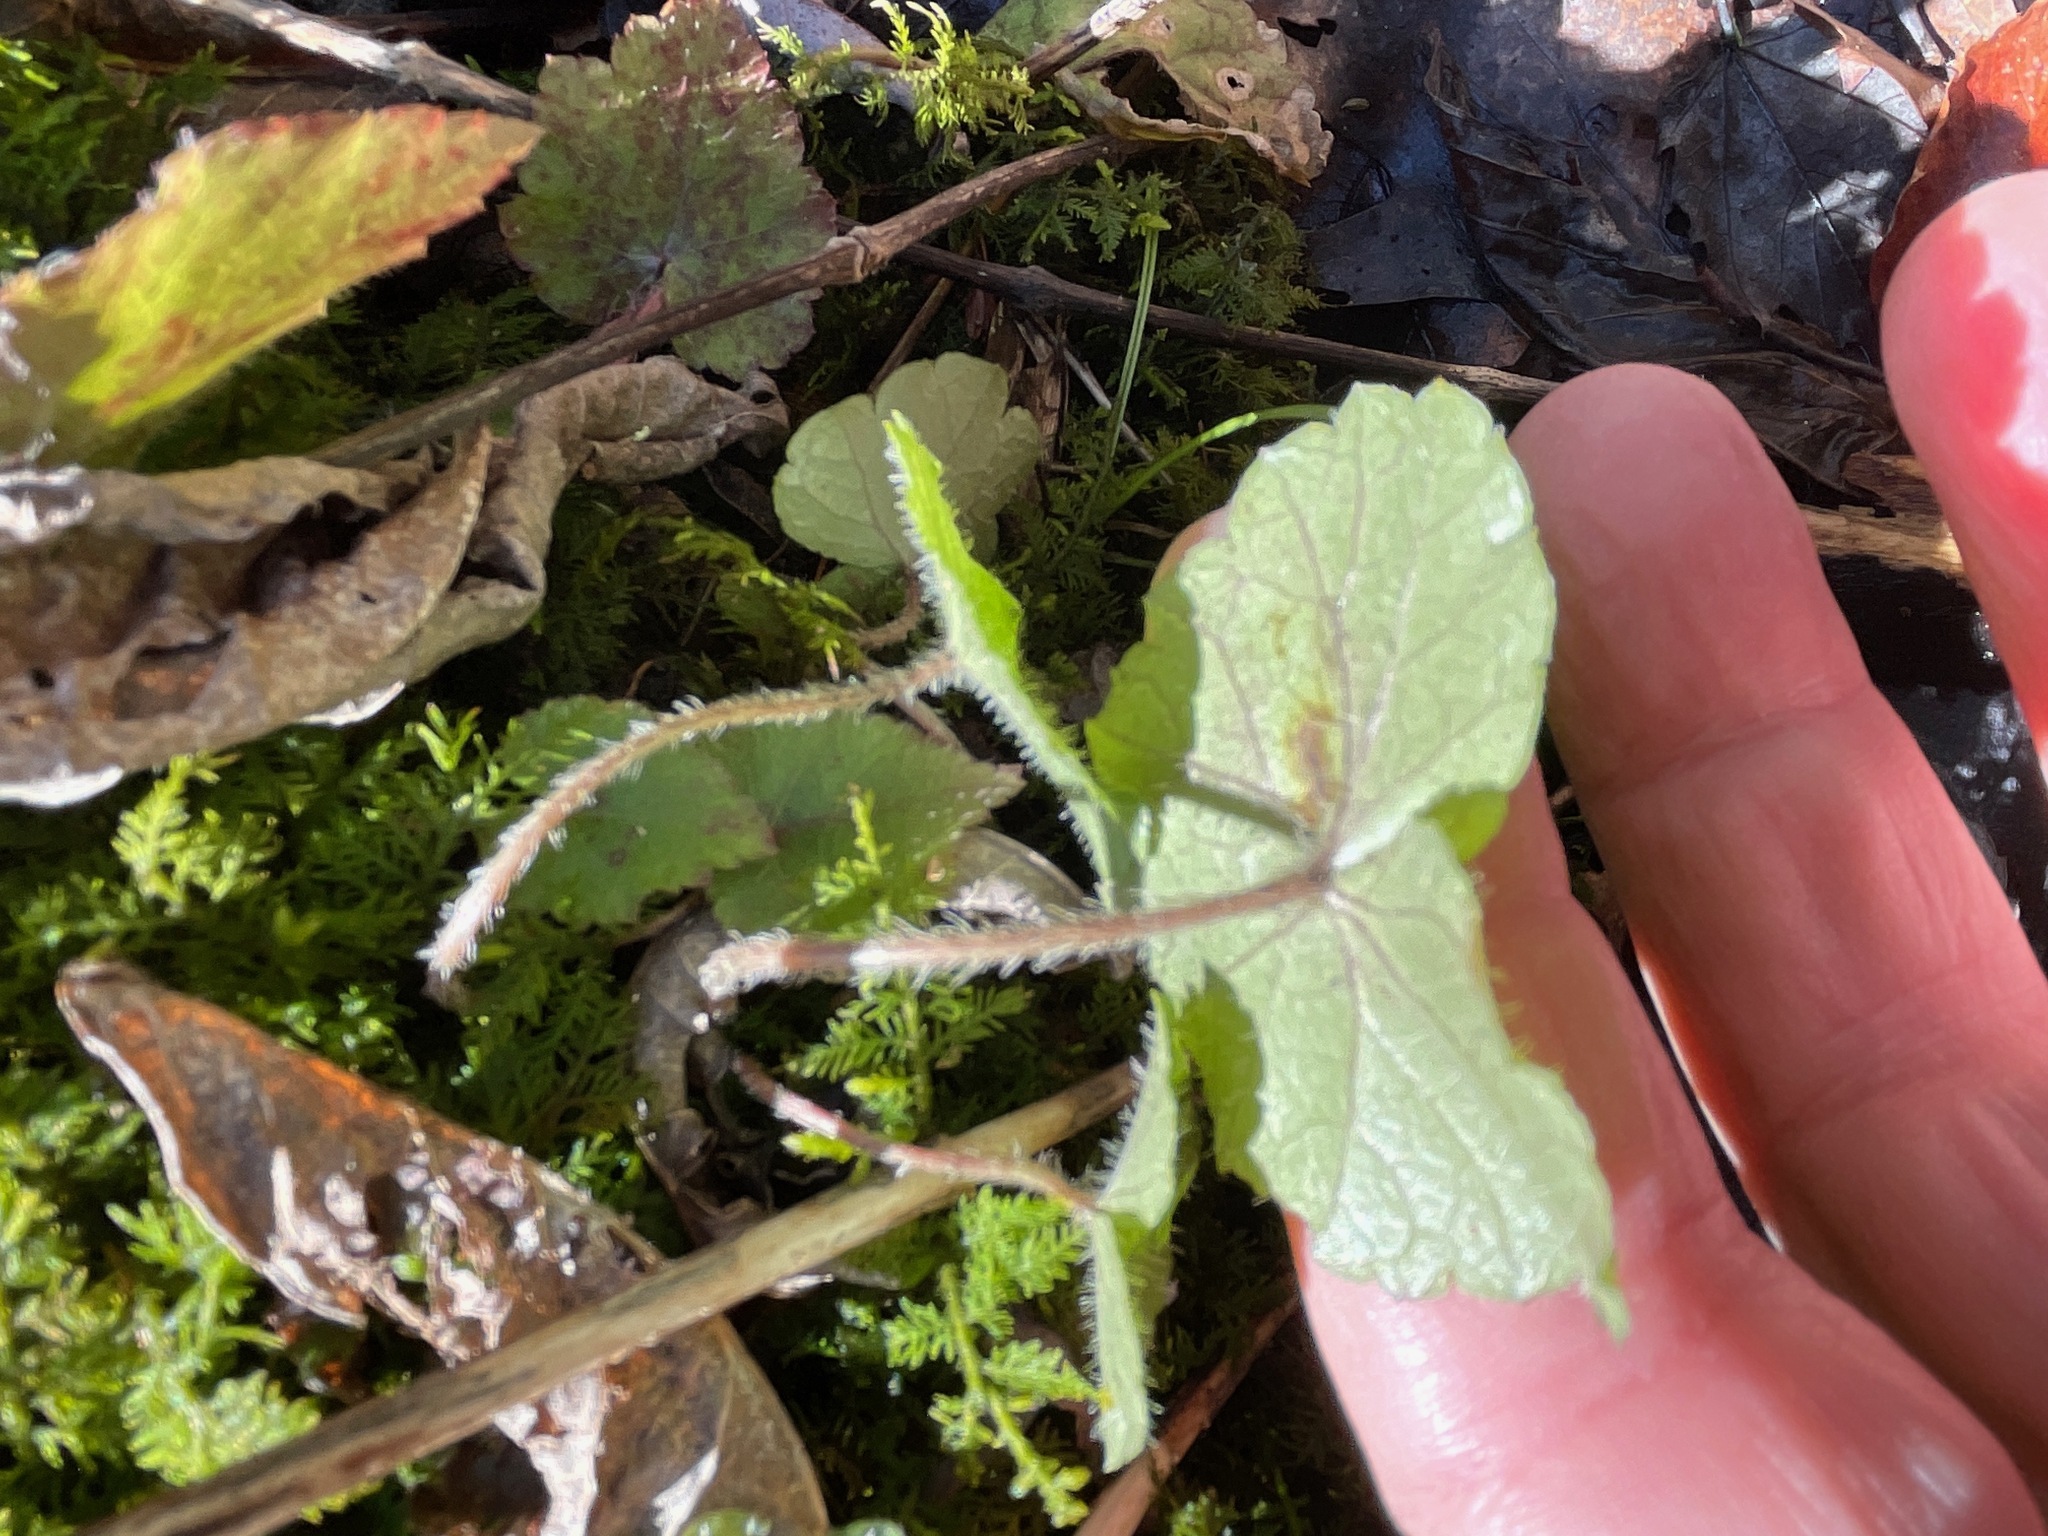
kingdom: Plantae
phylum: Tracheophyta
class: Magnoliopsida
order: Saxifragales
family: Saxifragaceae
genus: Mitella
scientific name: Mitella nuda
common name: Bare-stemmed bishop's-cap
